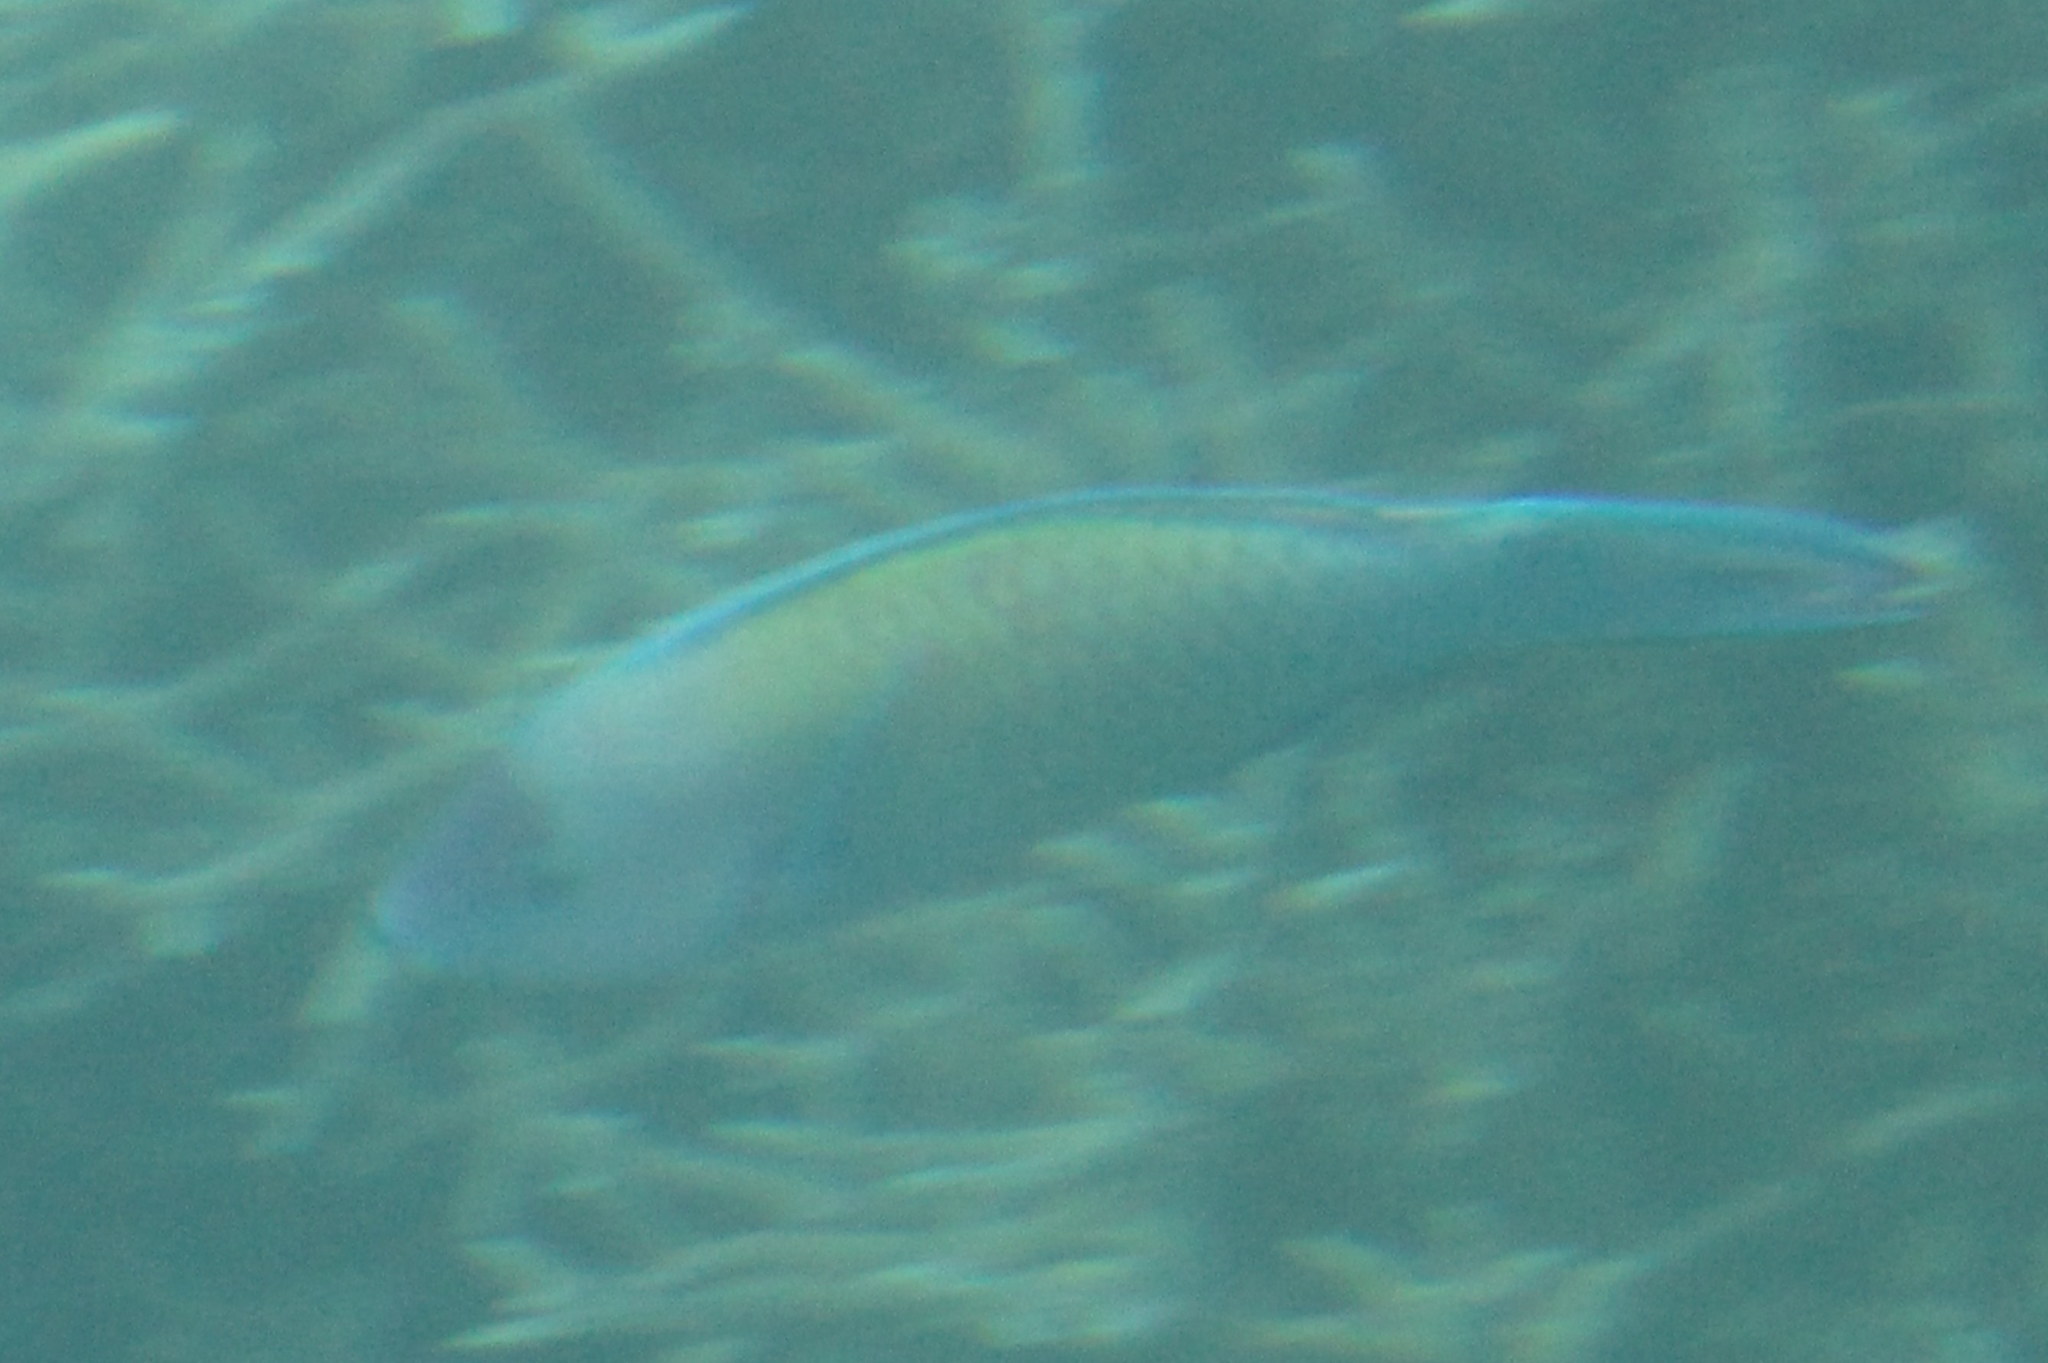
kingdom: Animalia
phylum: Chordata
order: Perciformes
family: Scaridae
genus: Scarus
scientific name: Scarus psittacus
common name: Palenose parrotfish
